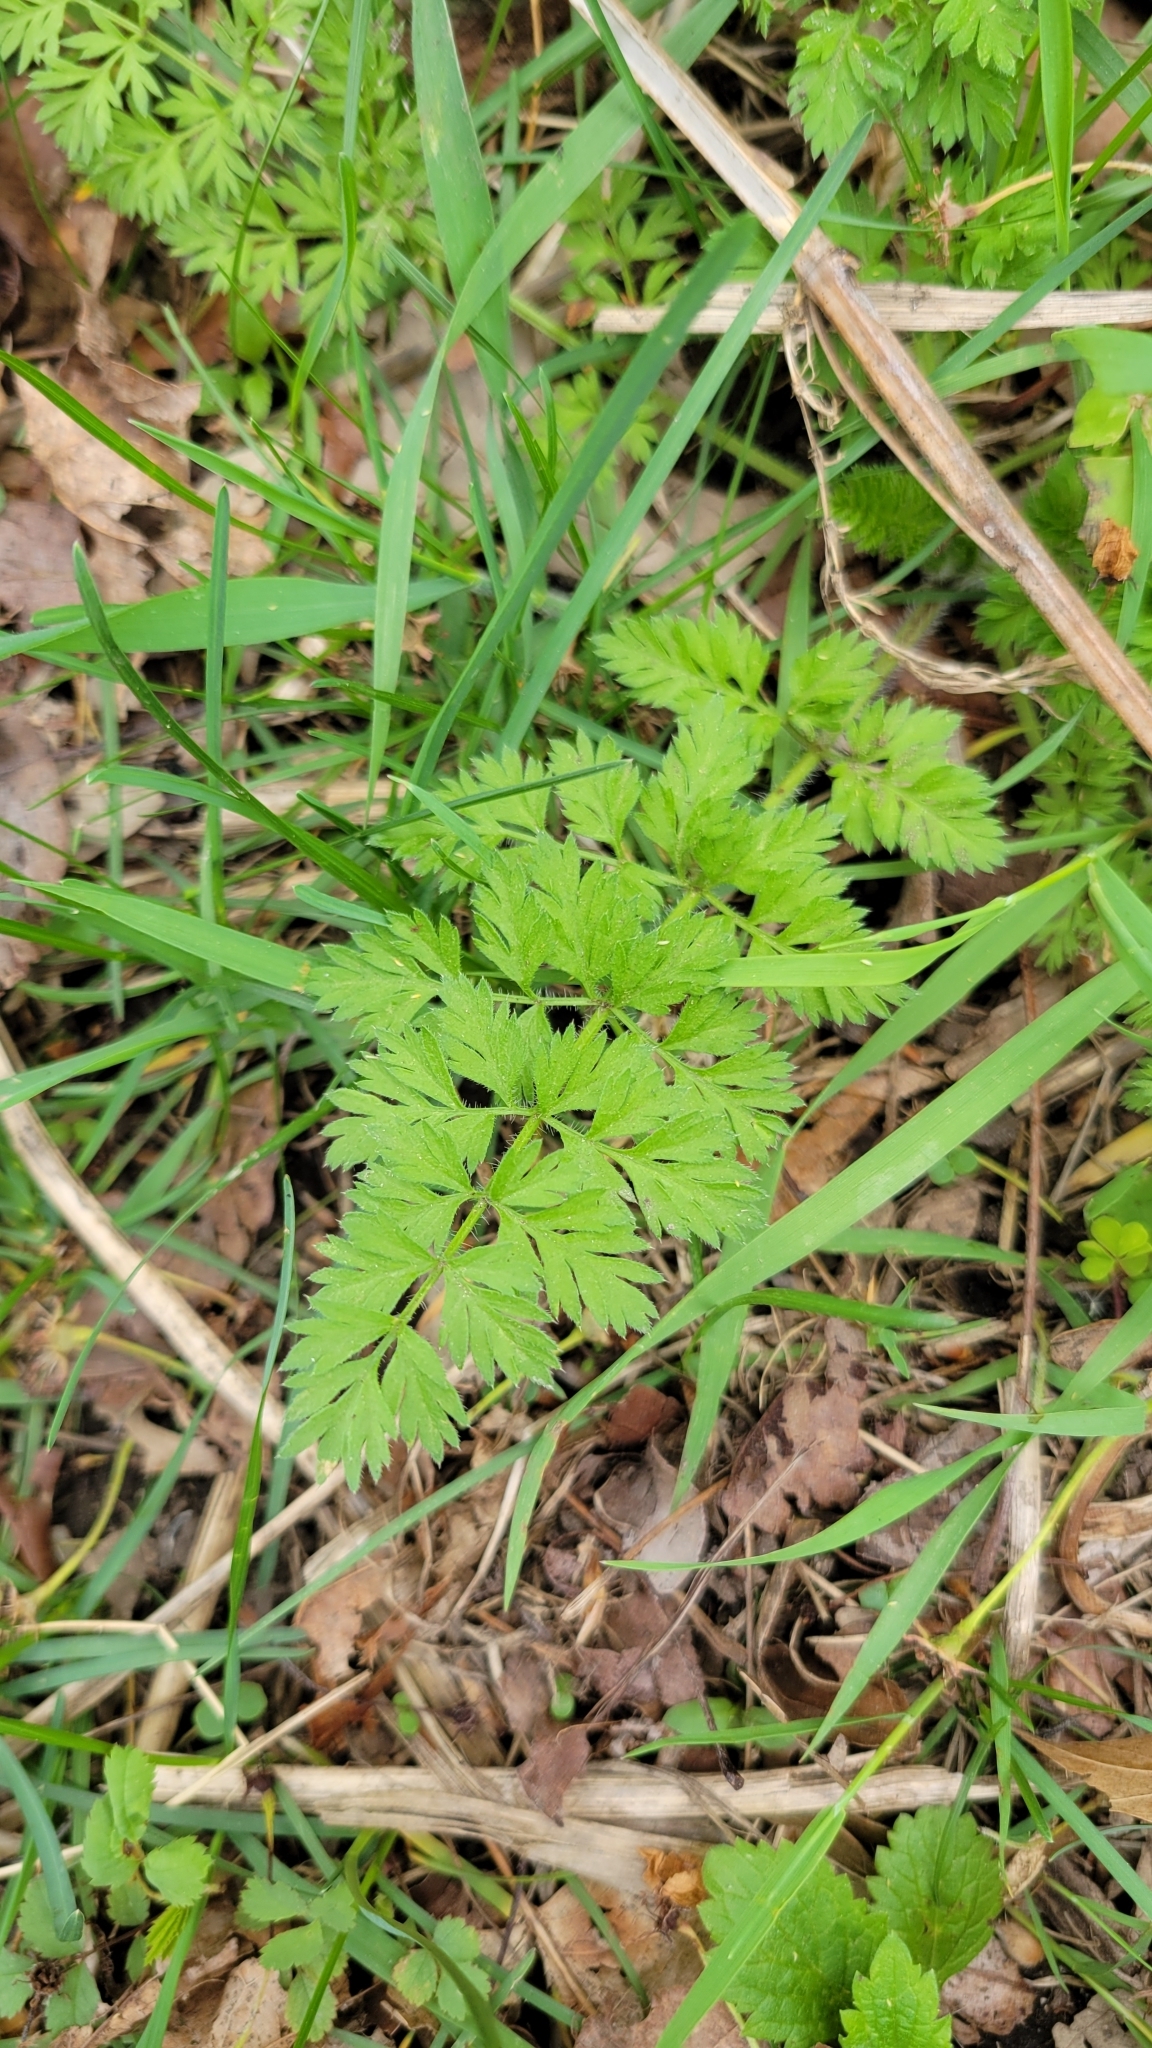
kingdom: Plantae
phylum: Tracheophyta
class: Magnoliopsida
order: Apiales
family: Apiaceae
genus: Daucus
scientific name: Daucus carota
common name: Wild carrot
